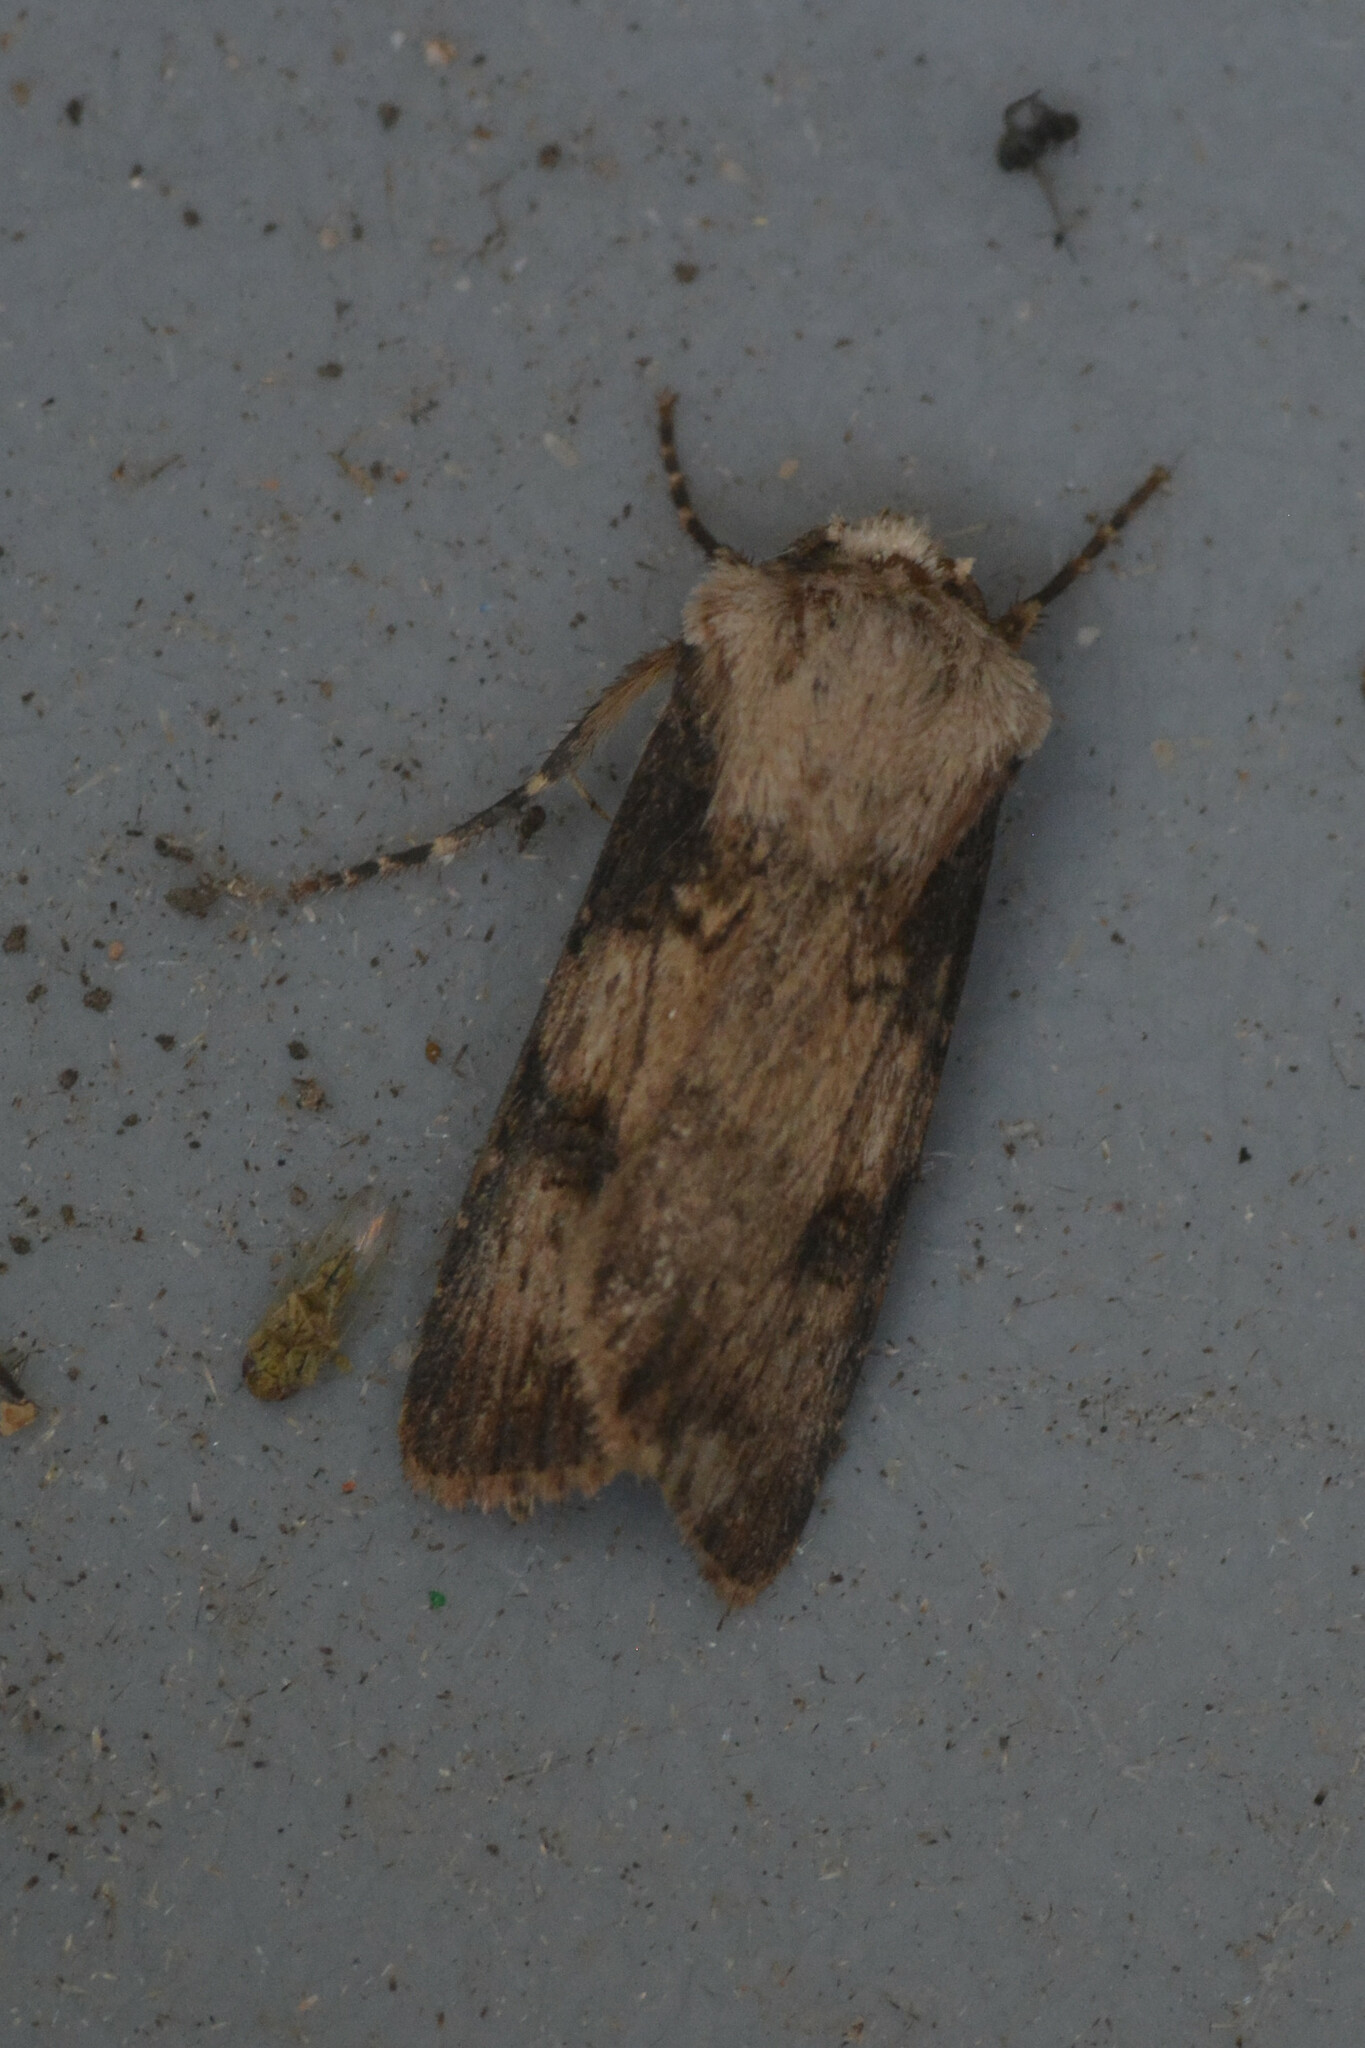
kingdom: Animalia
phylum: Arthropoda
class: Insecta
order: Lepidoptera
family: Noctuidae
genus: Agrotis
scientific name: Agrotis puta
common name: Shuttle-shaped dart
